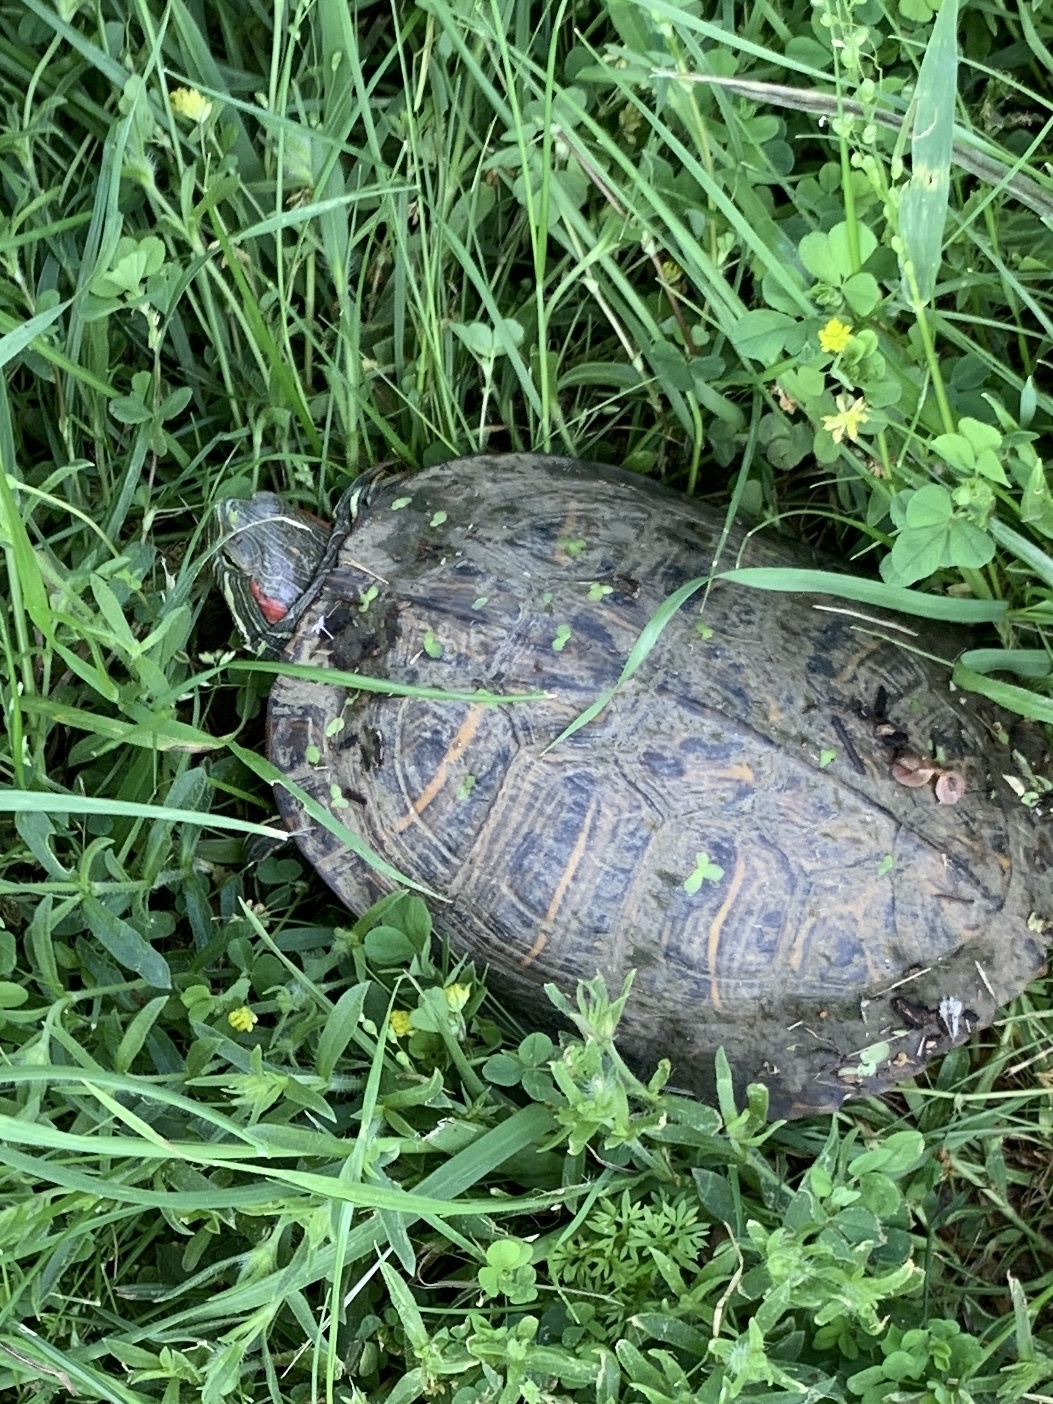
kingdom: Animalia
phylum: Chordata
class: Testudines
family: Emydidae
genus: Trachemys
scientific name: Trachemys scripta
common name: Slider
